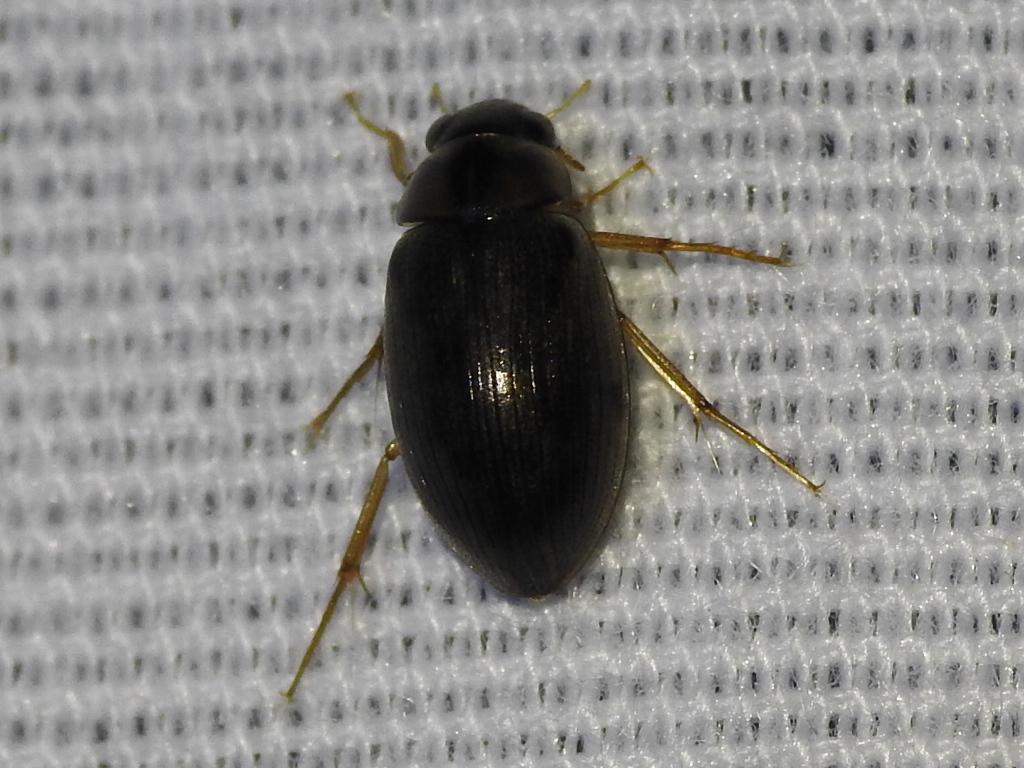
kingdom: Animalia
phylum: Arthropoda
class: Insecta
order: Coleoptera
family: Hydrophilidae
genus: Berosus
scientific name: Berosus
